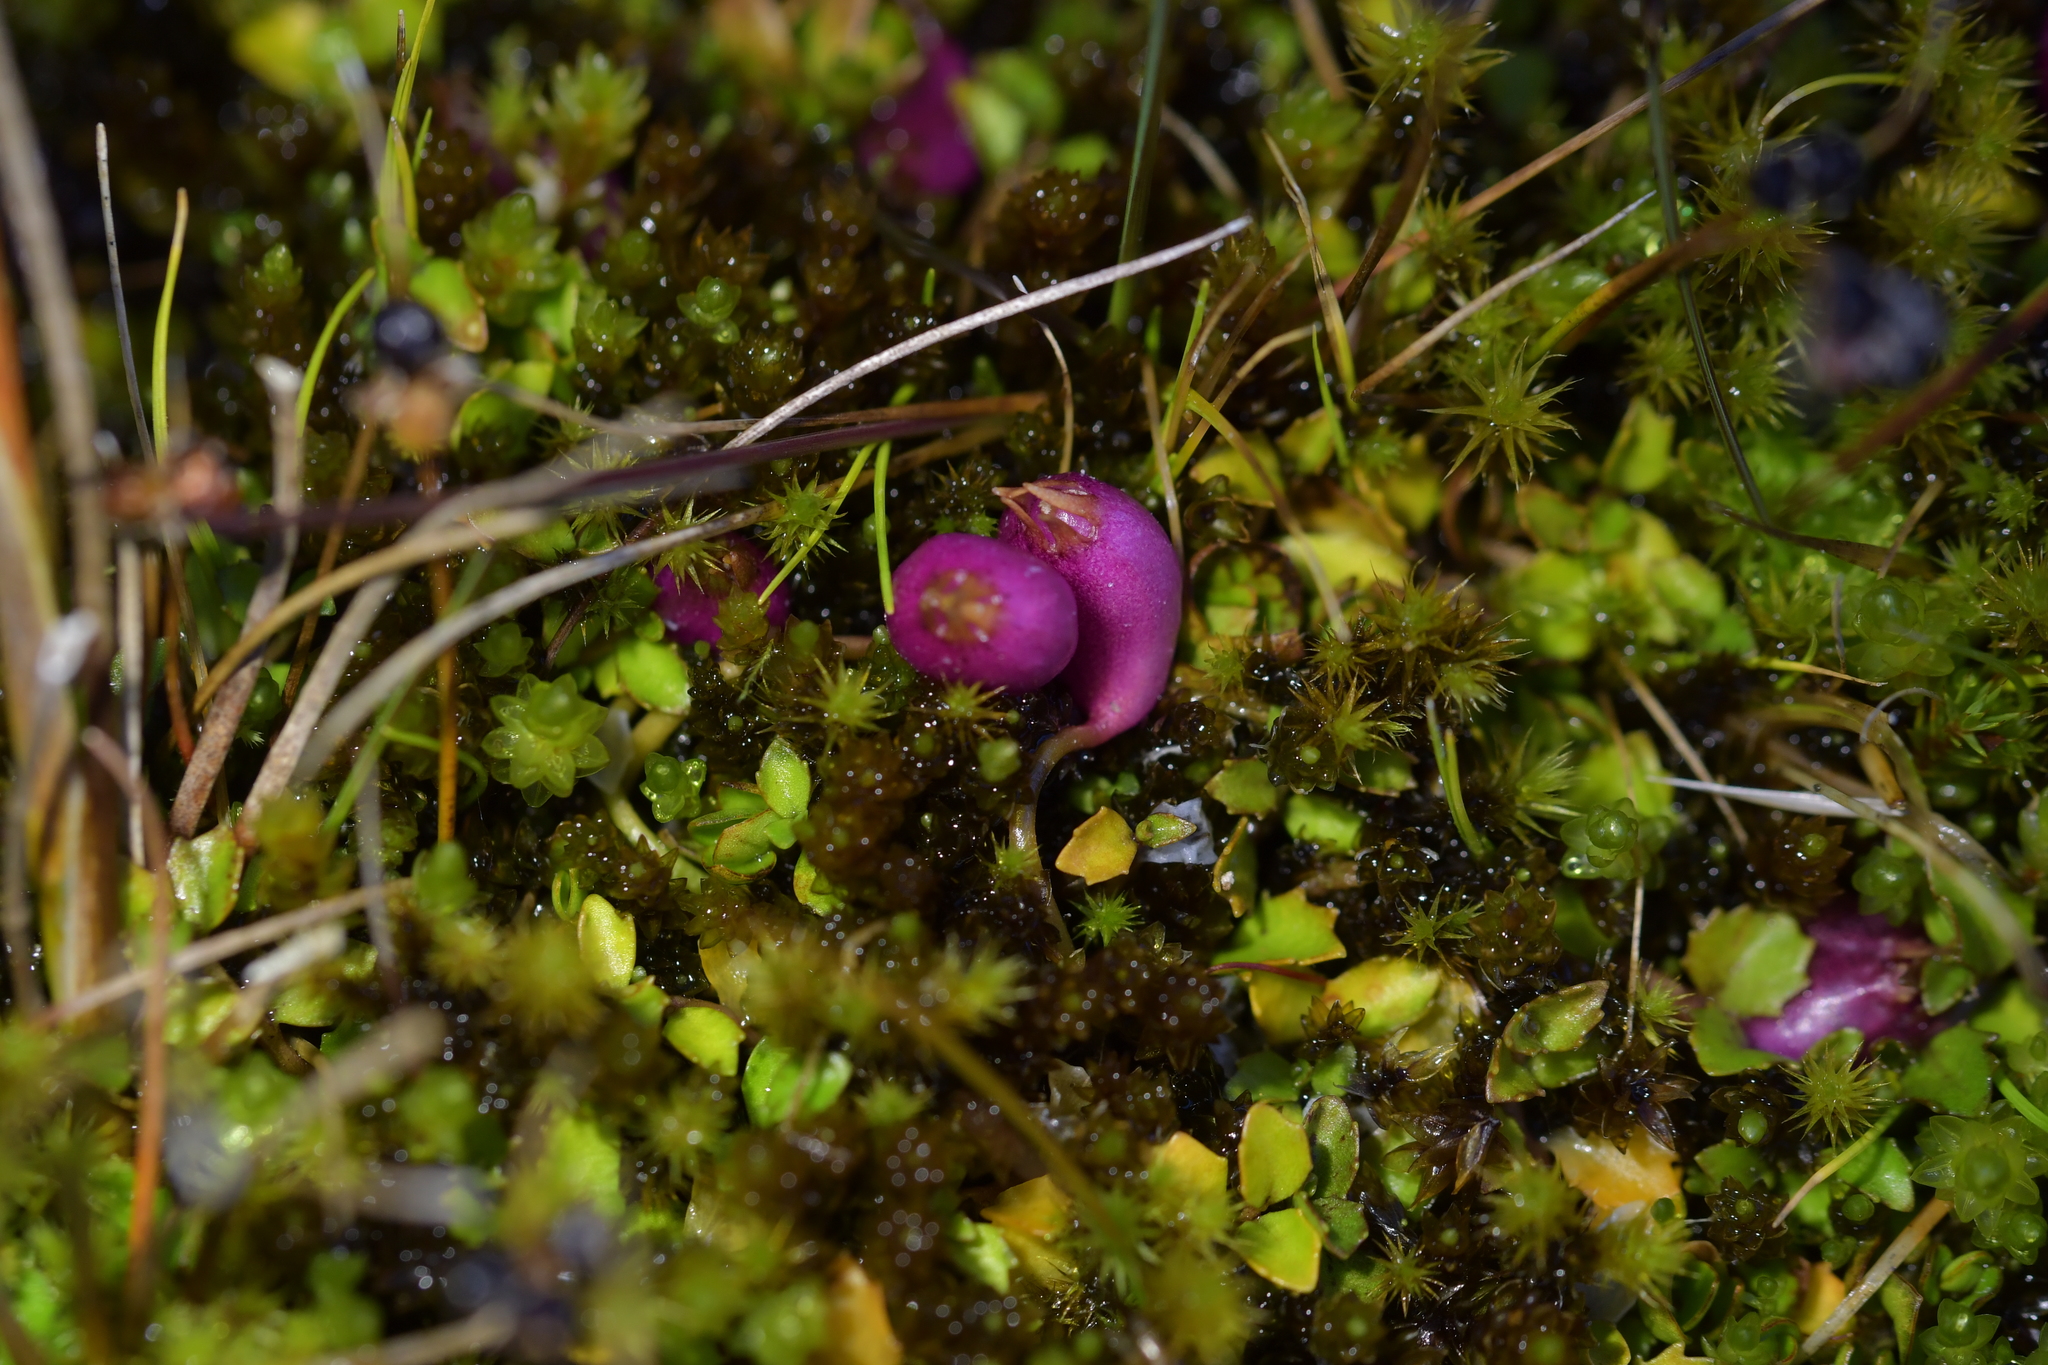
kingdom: Plantae
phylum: Tracheophyta
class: Magnoliopsida
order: Asterales
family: Campanulaceae
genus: Lobelia
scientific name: Lobelia angulata
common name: Lawn lobelia
